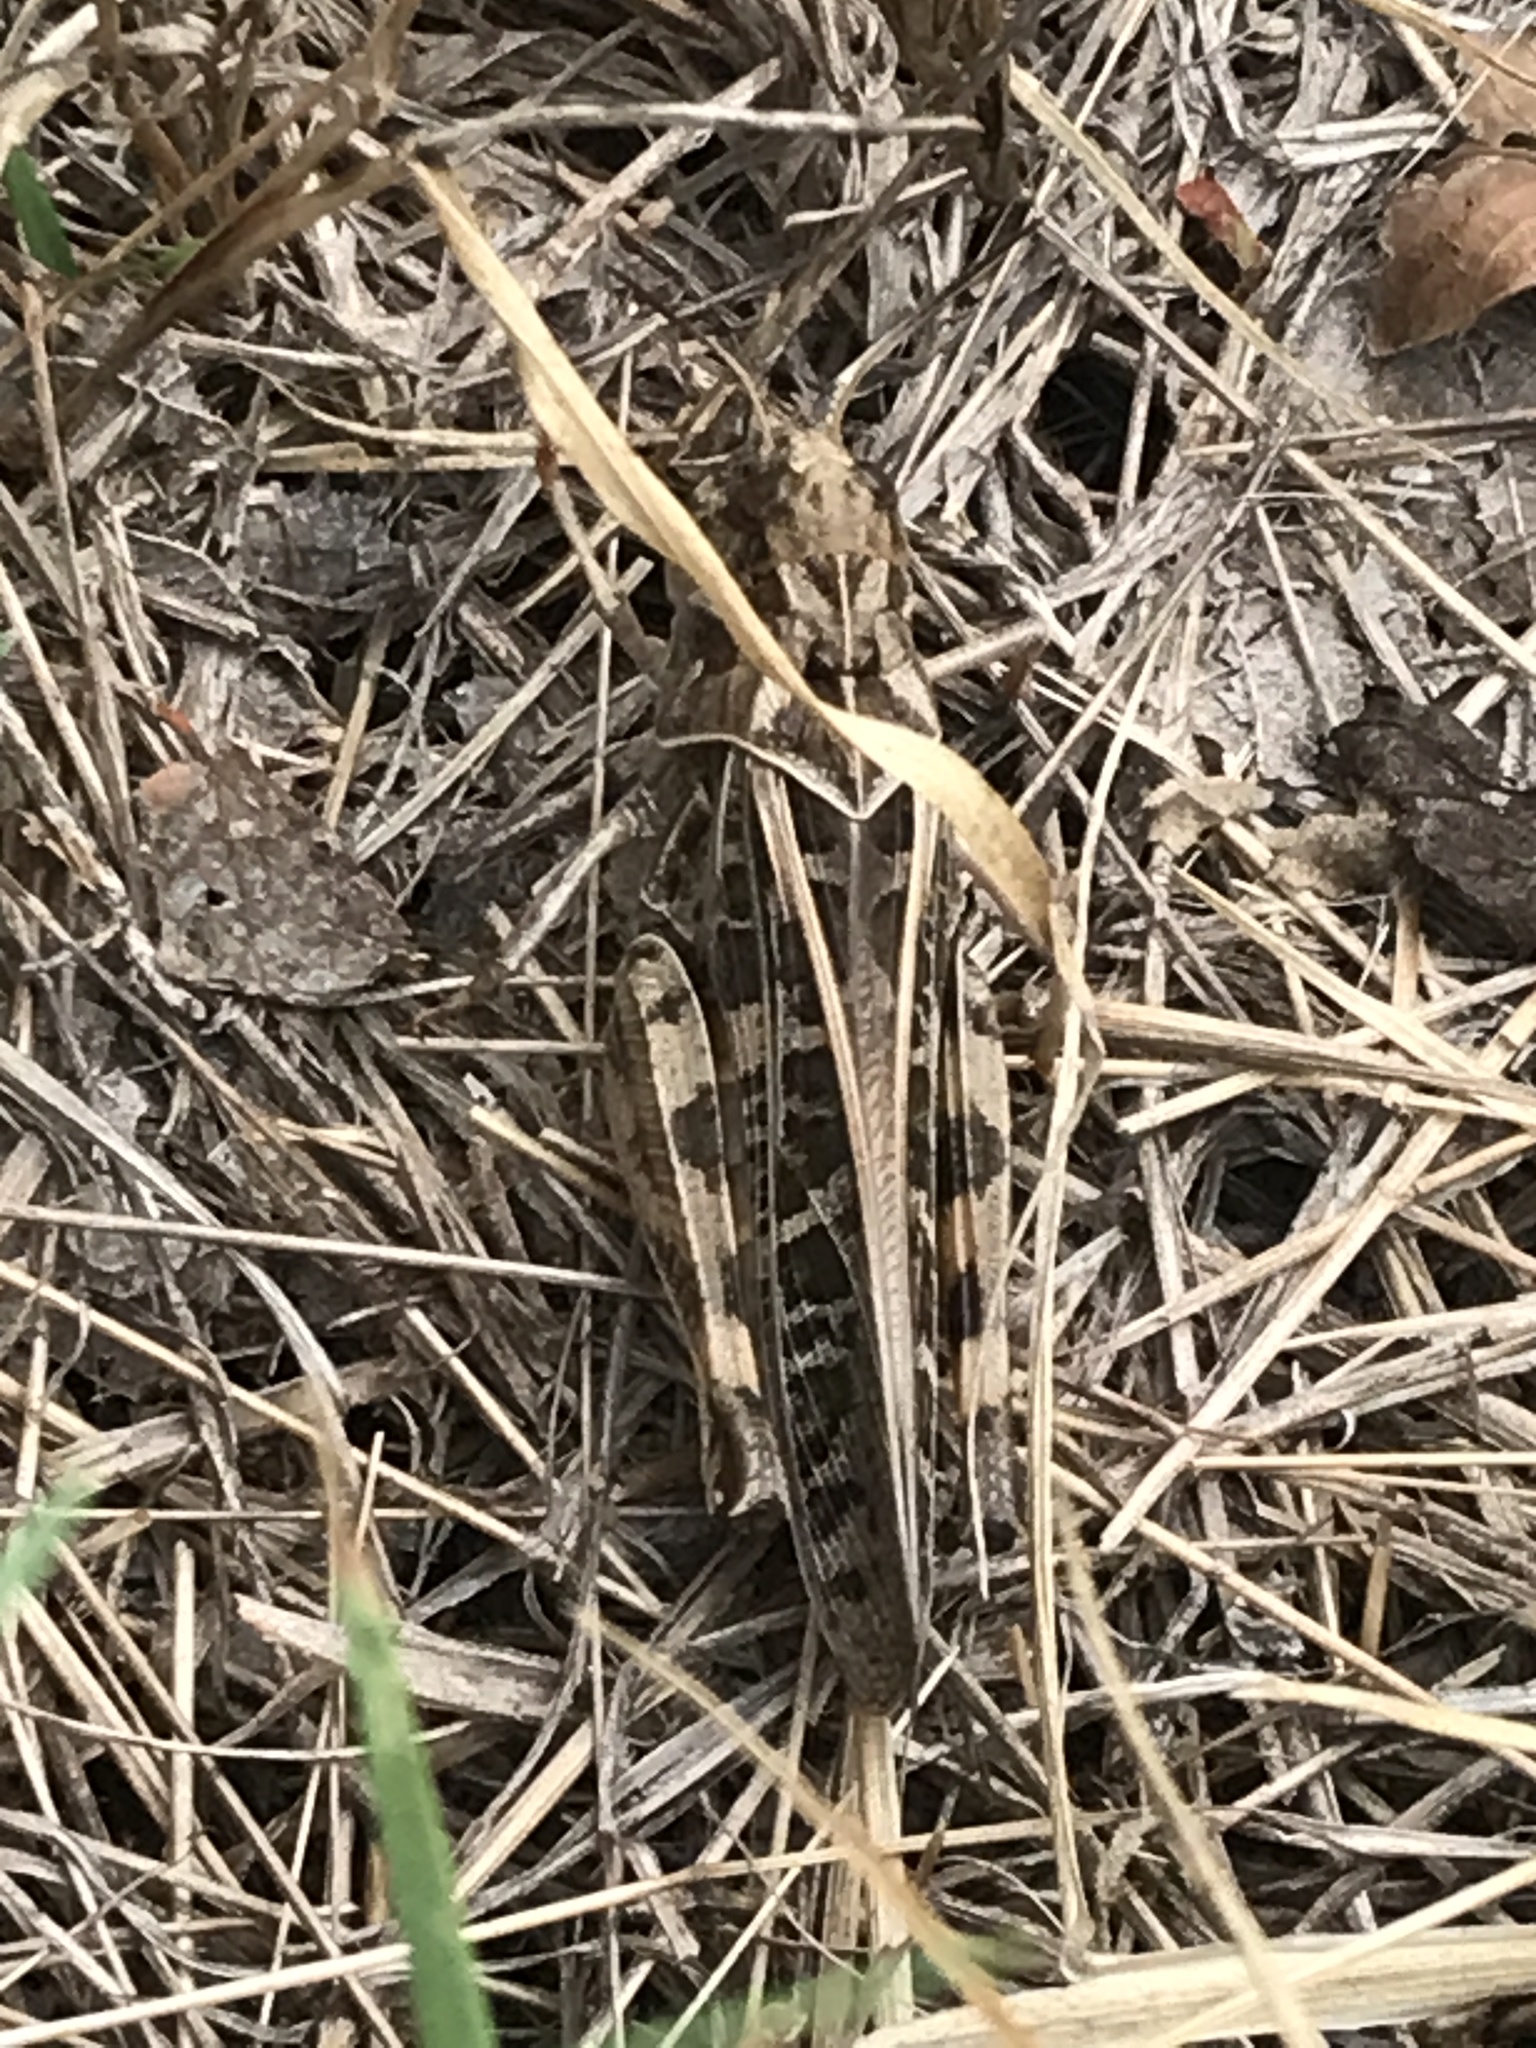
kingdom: Animalia
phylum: Arthropoda
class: Insecta
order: Orthoptera
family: Acrididae
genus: Hippiscus
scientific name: Hippiscus ocelote
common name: Wrinkled grasshopper
